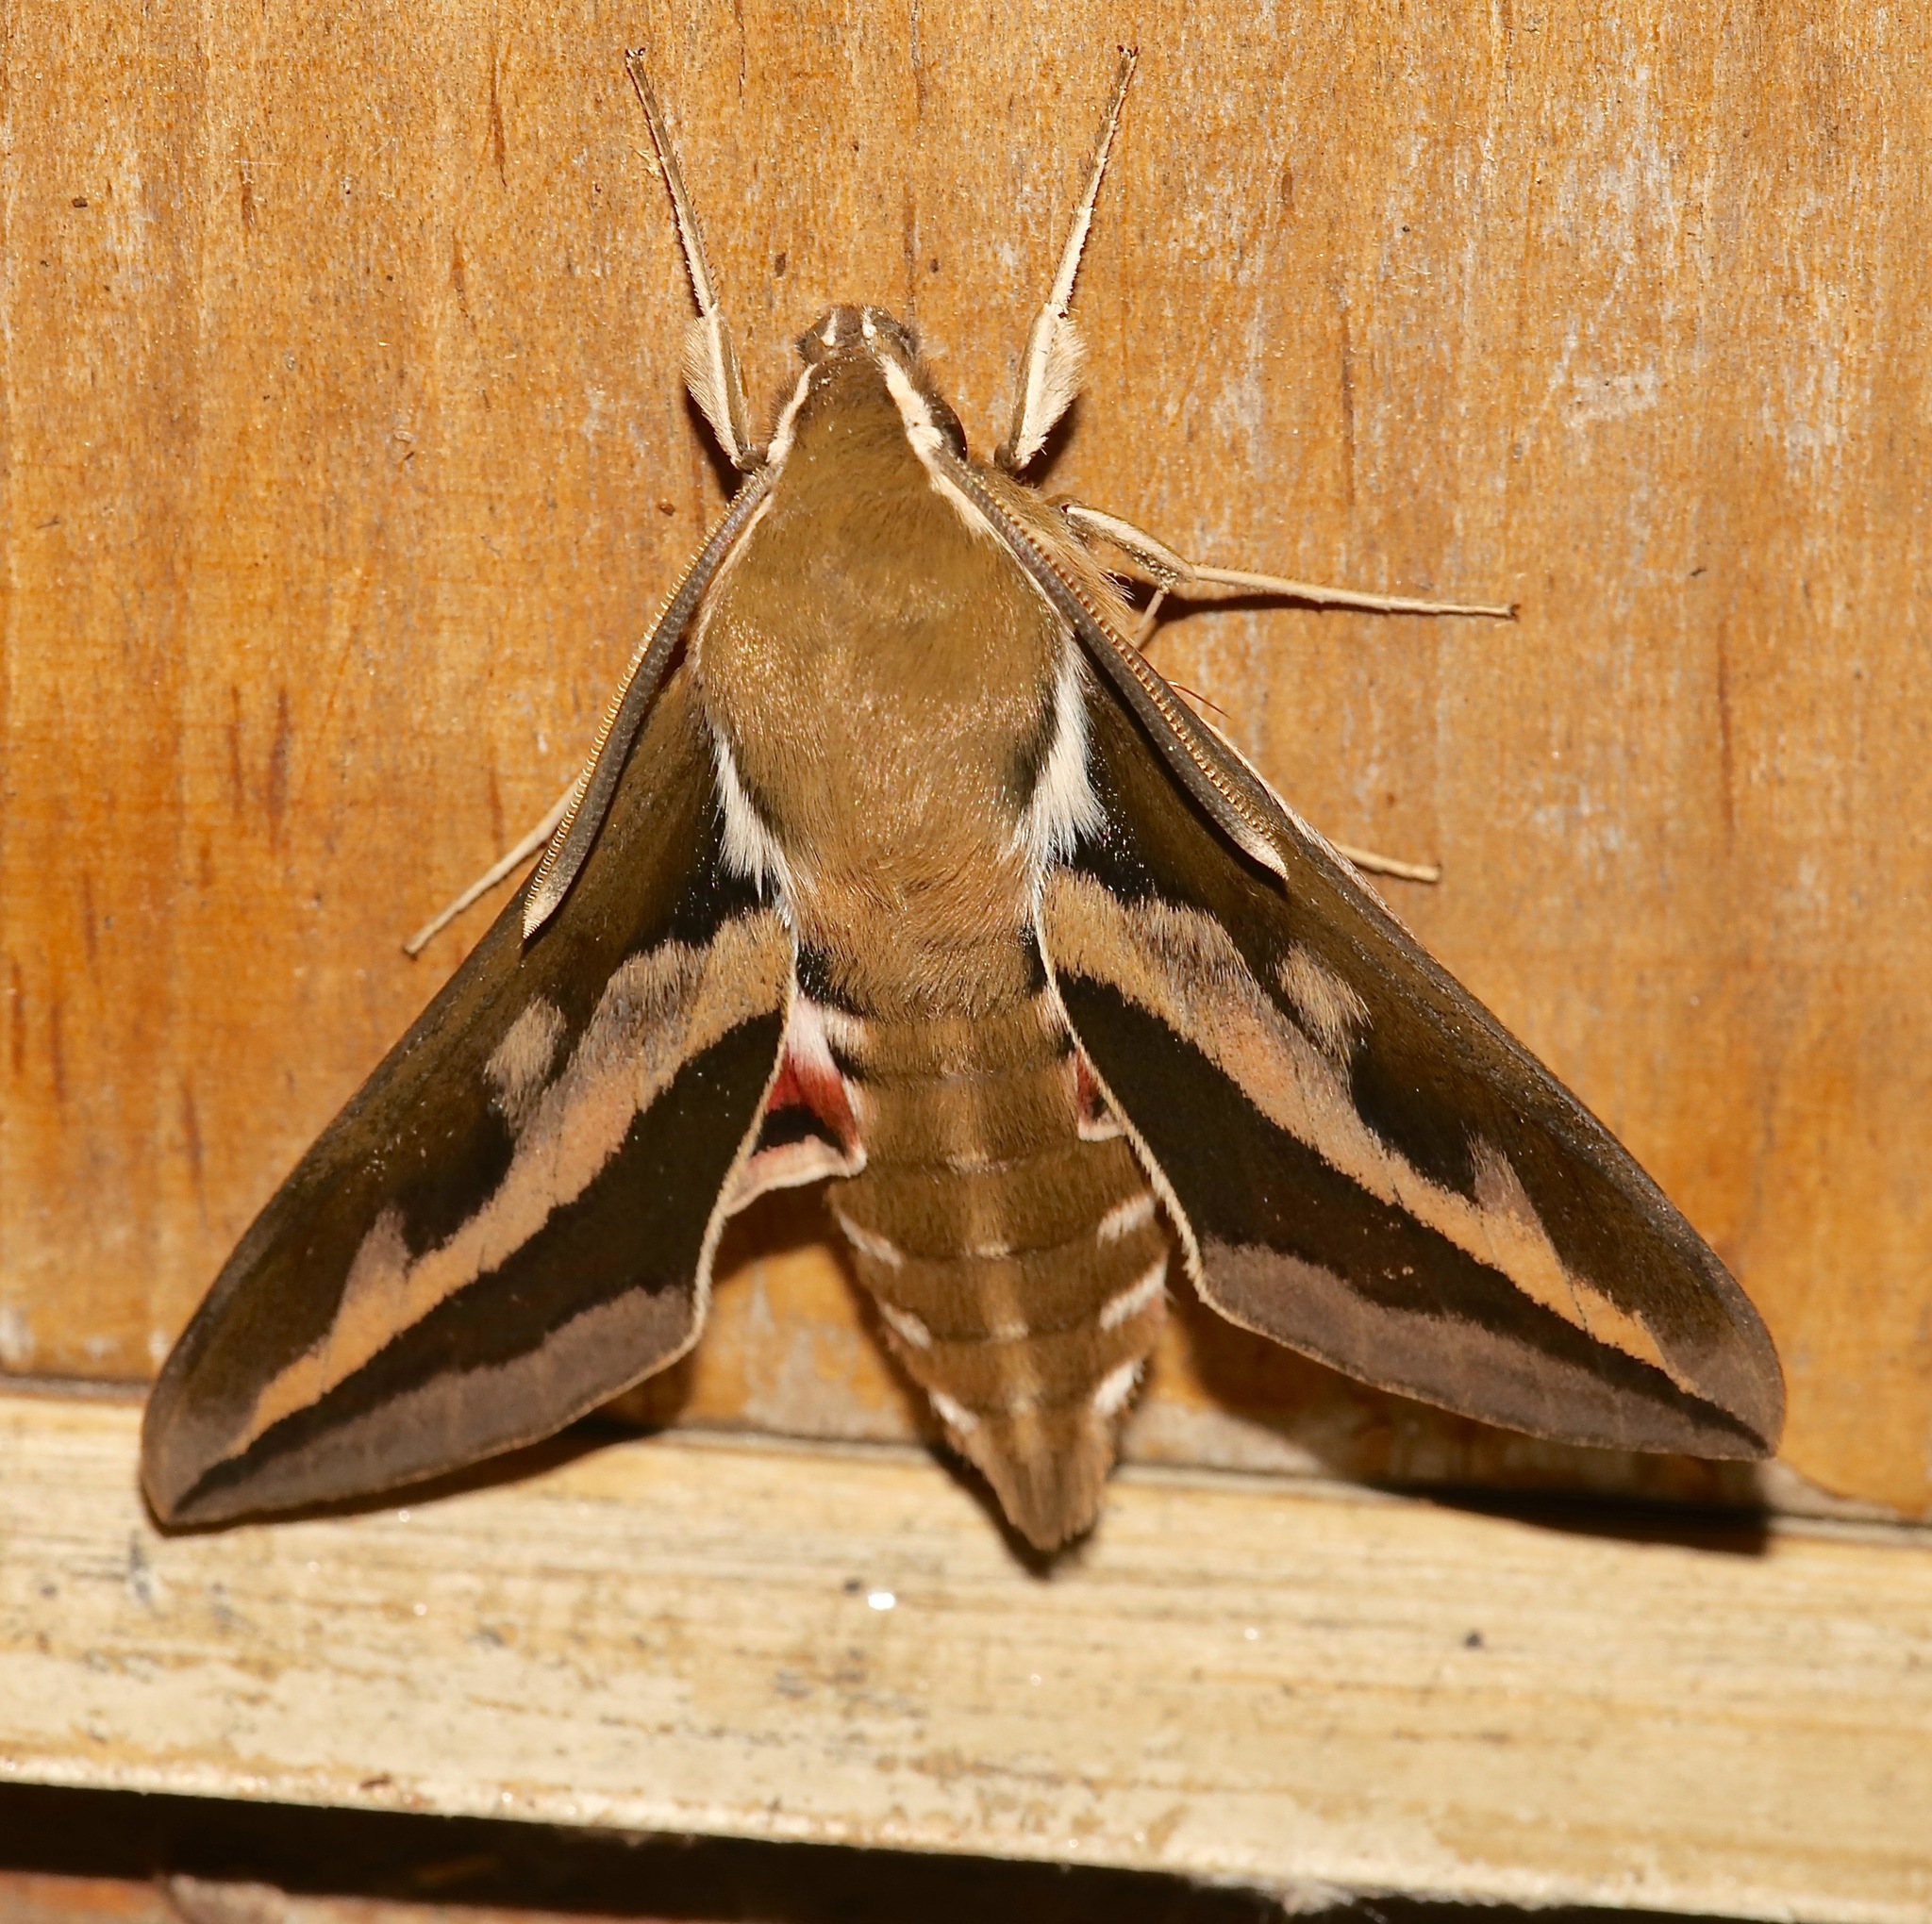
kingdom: Animalia
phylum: Arthropoda
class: Insecta
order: Lepidoptera
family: Sphingidae
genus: Hyles
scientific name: Hyles gallii
